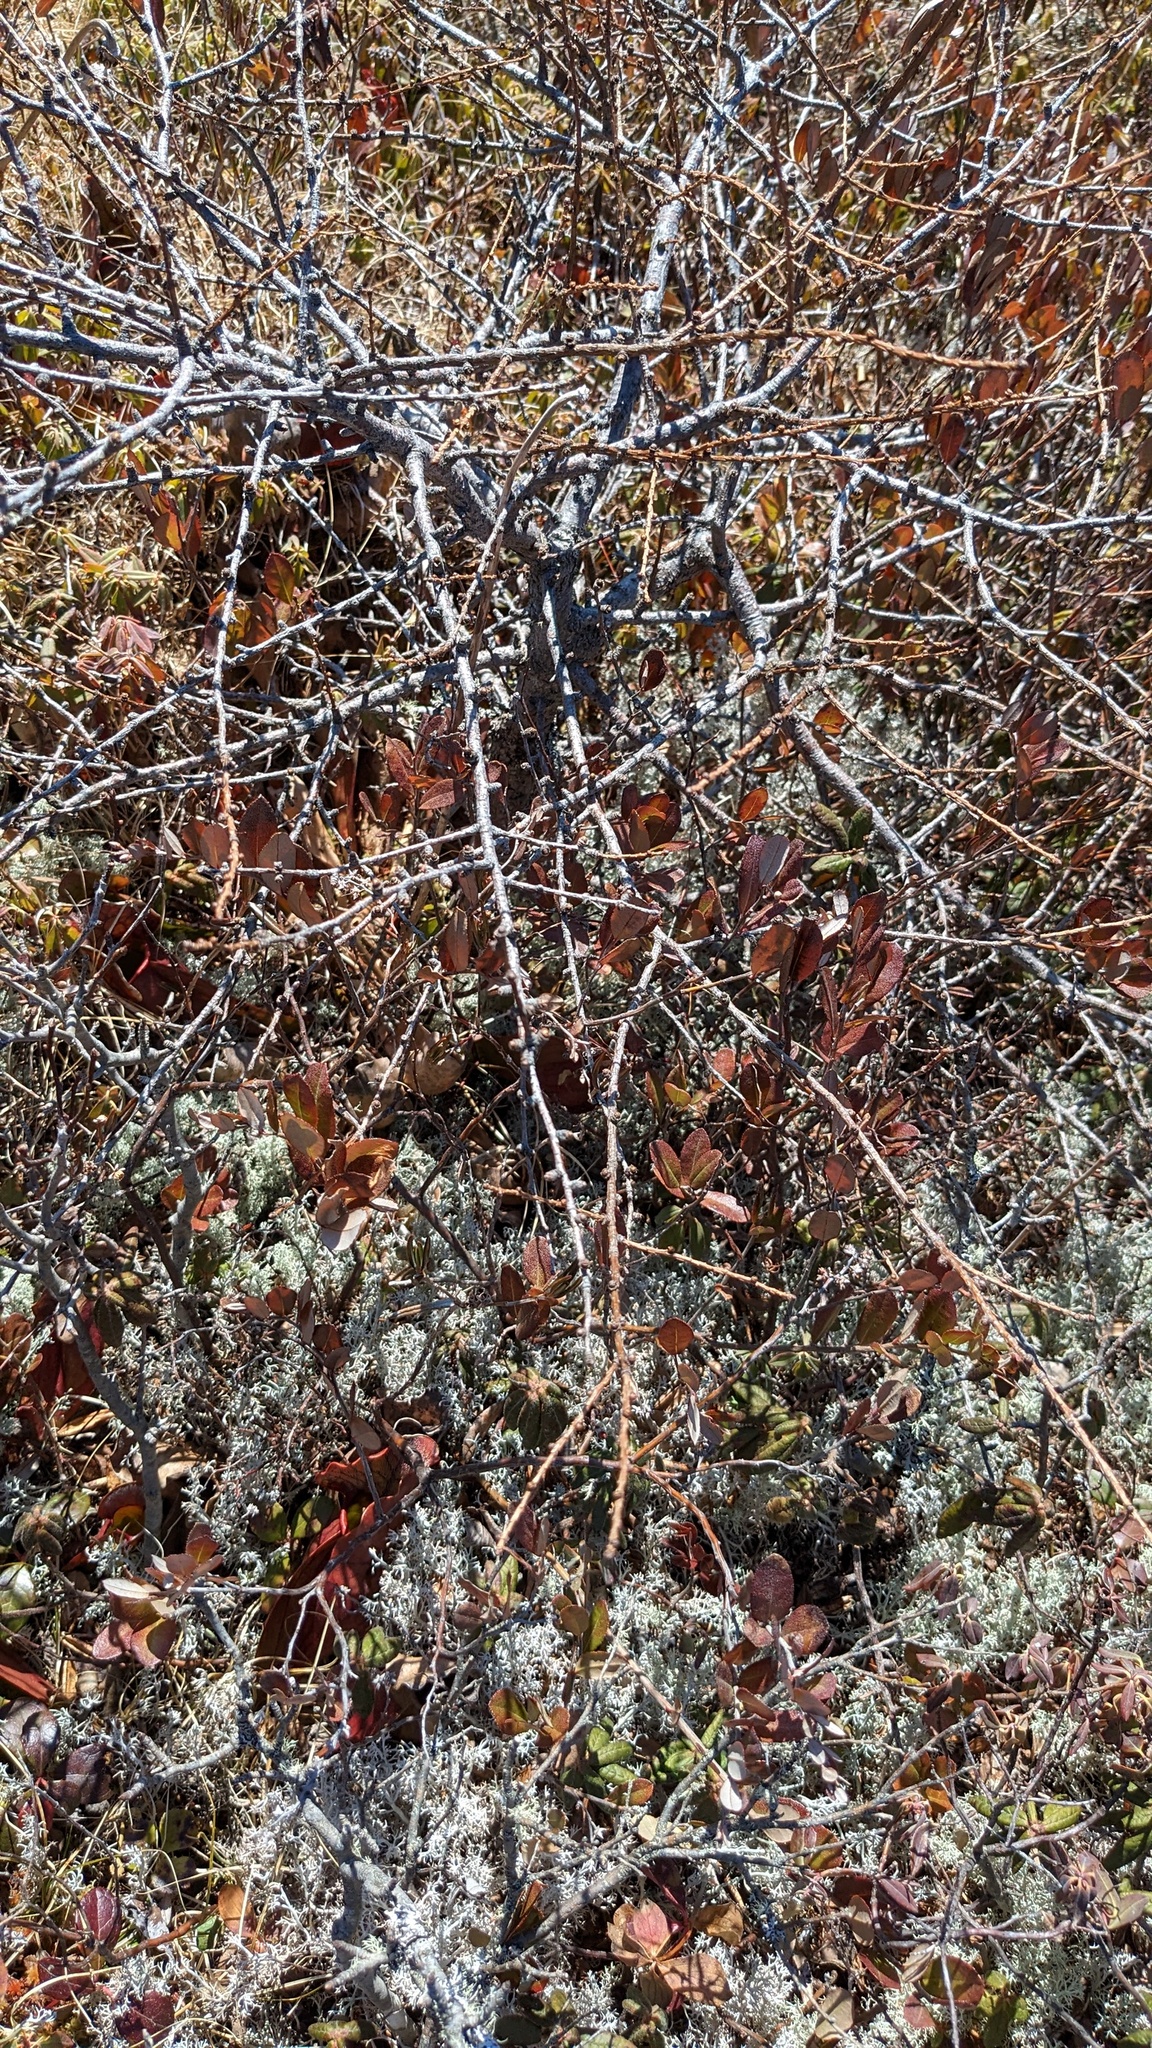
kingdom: Plantae
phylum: Tracheophyta
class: Pinopsida
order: Pinales
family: Pinaceae
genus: Larix
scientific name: Larix laricina
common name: American larch
